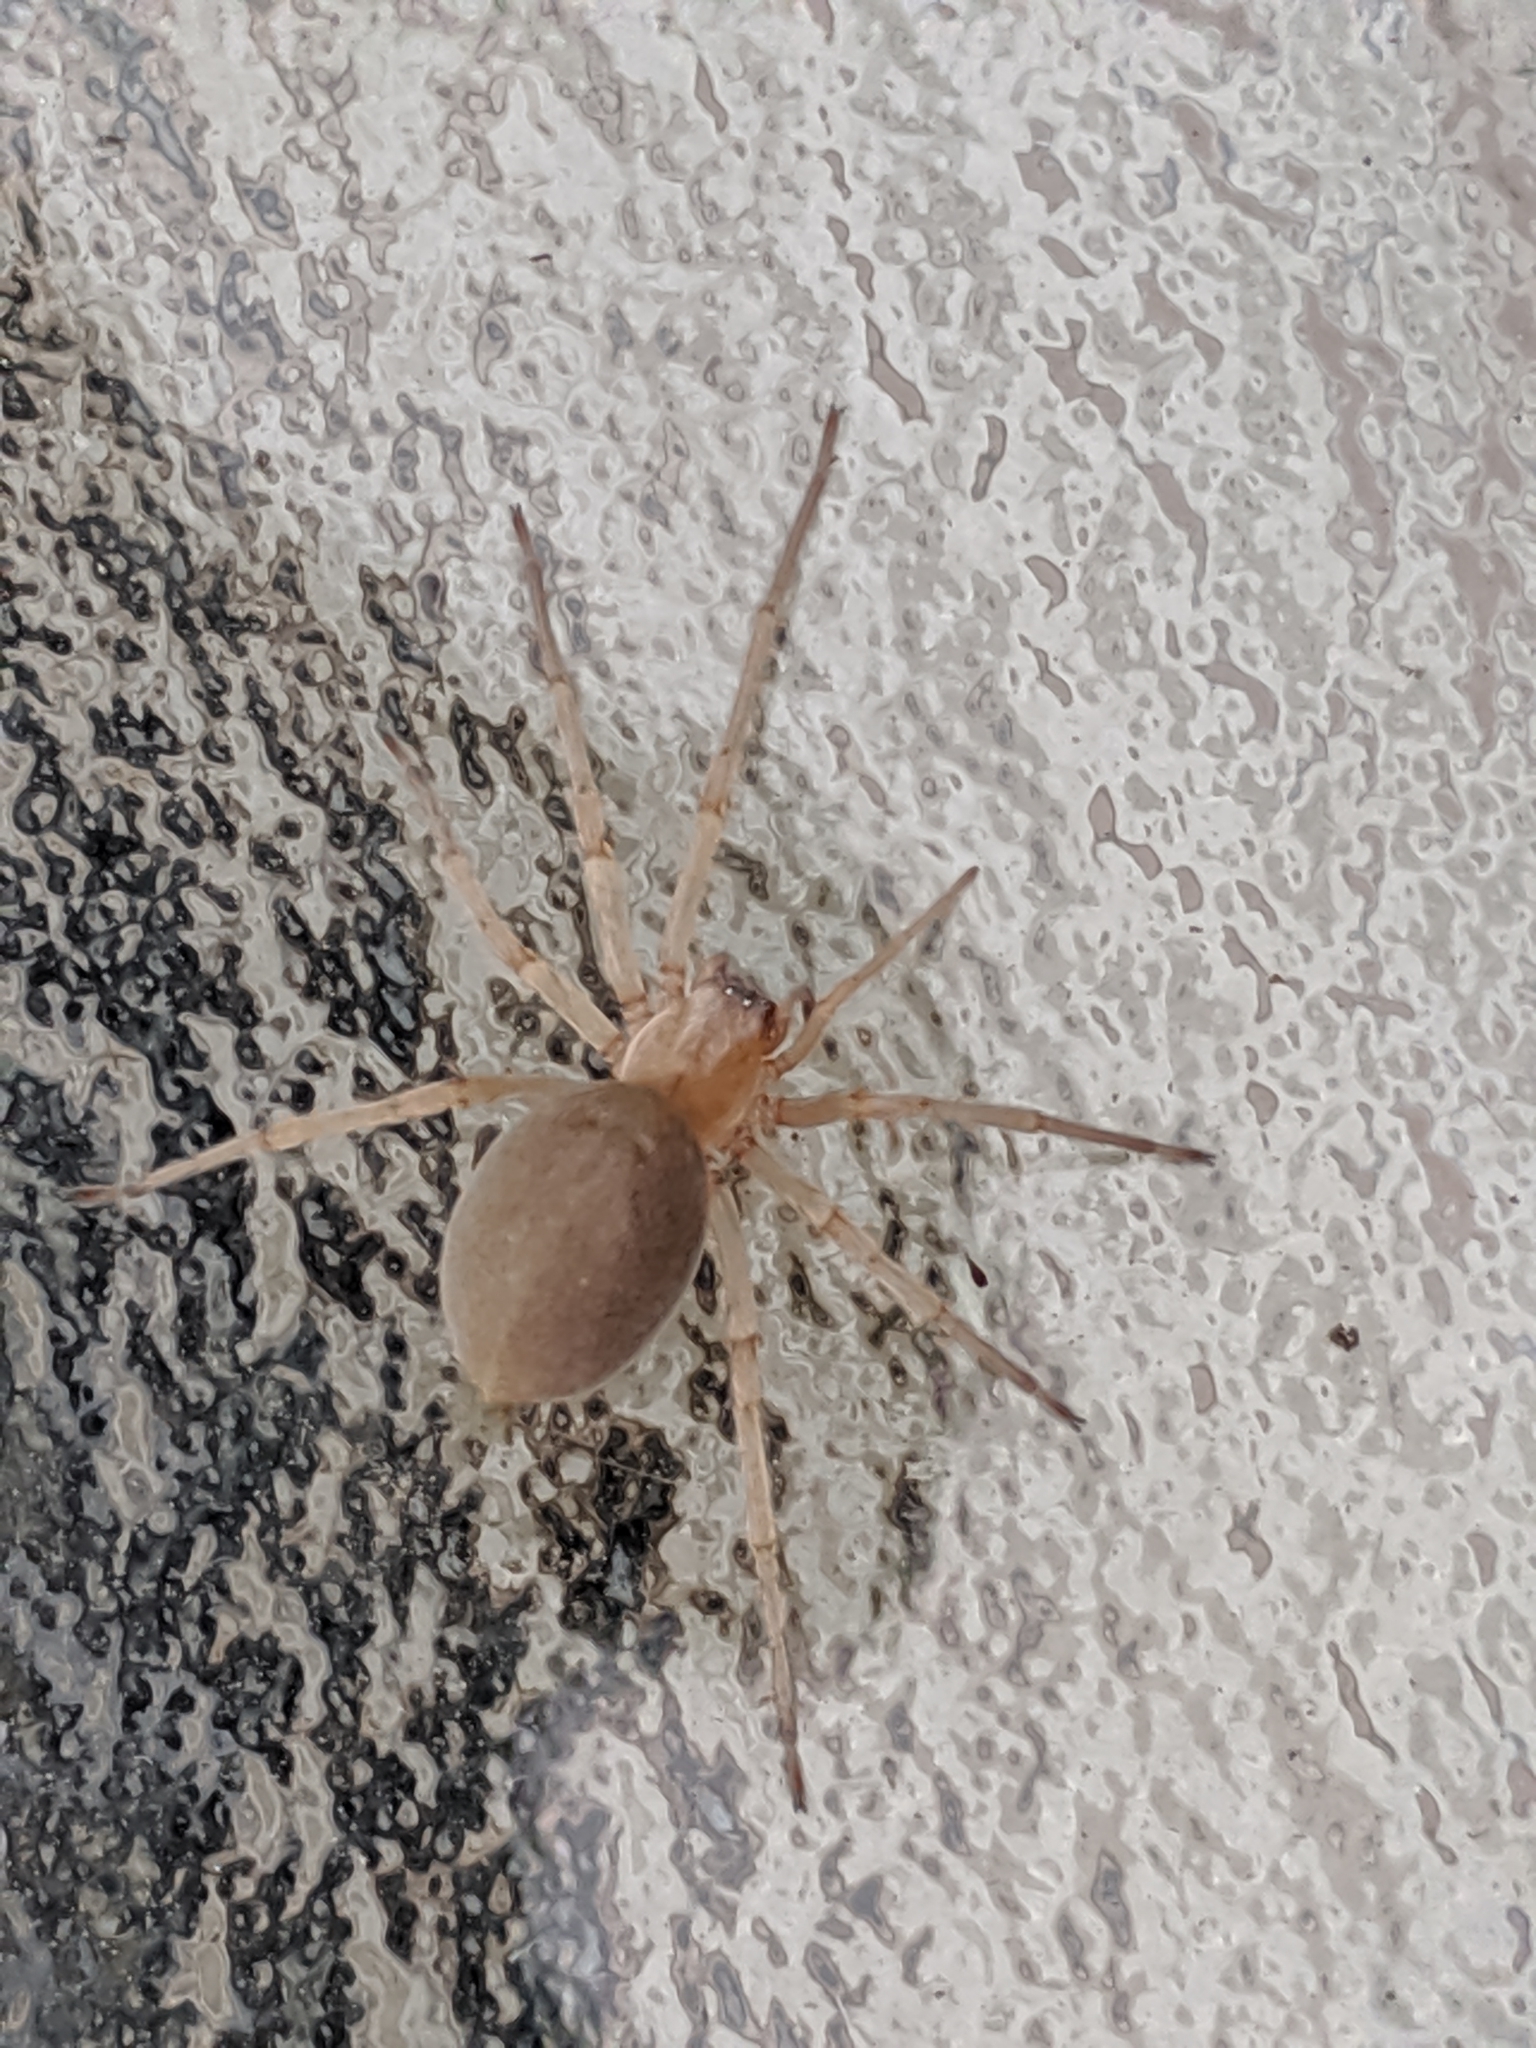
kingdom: Animalia
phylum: Arthropoda
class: Arachnida
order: Araneae
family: Cheiracanthiidae
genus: Cheiracanthium
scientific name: Cheiracanthium mildei
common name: Northern yellow sac spider
